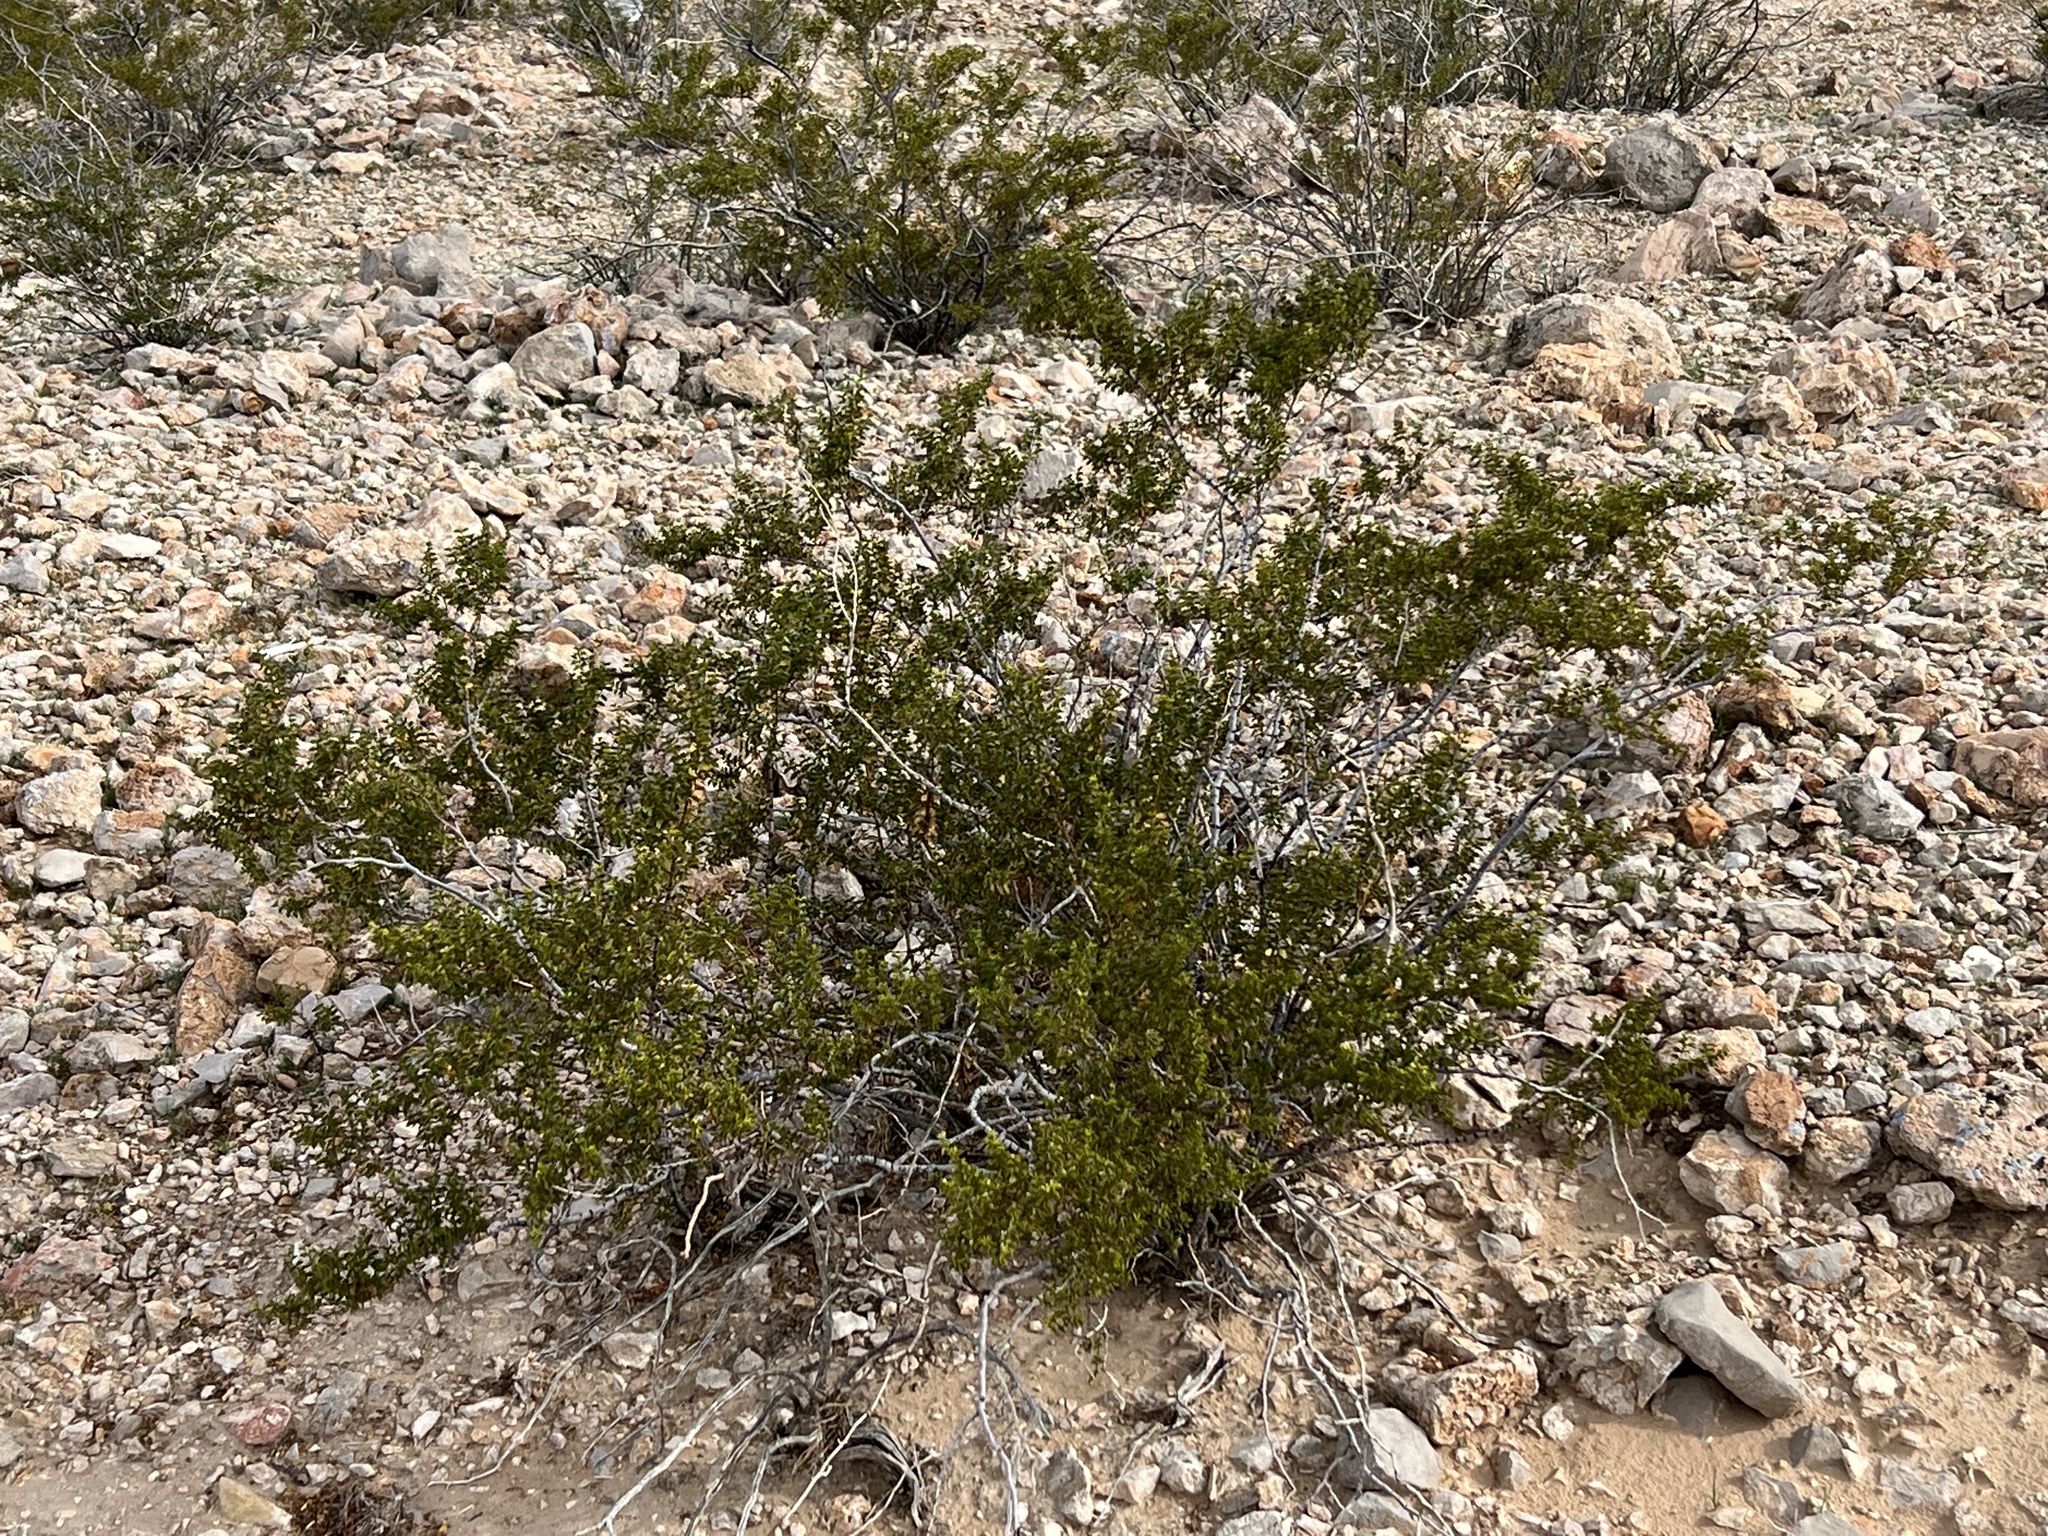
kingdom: Plantae
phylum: Tracheophyta
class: Magnoliopsida
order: Zygophyllales
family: Zygophyllaceae
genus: Larrea
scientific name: Larrea tridentata
